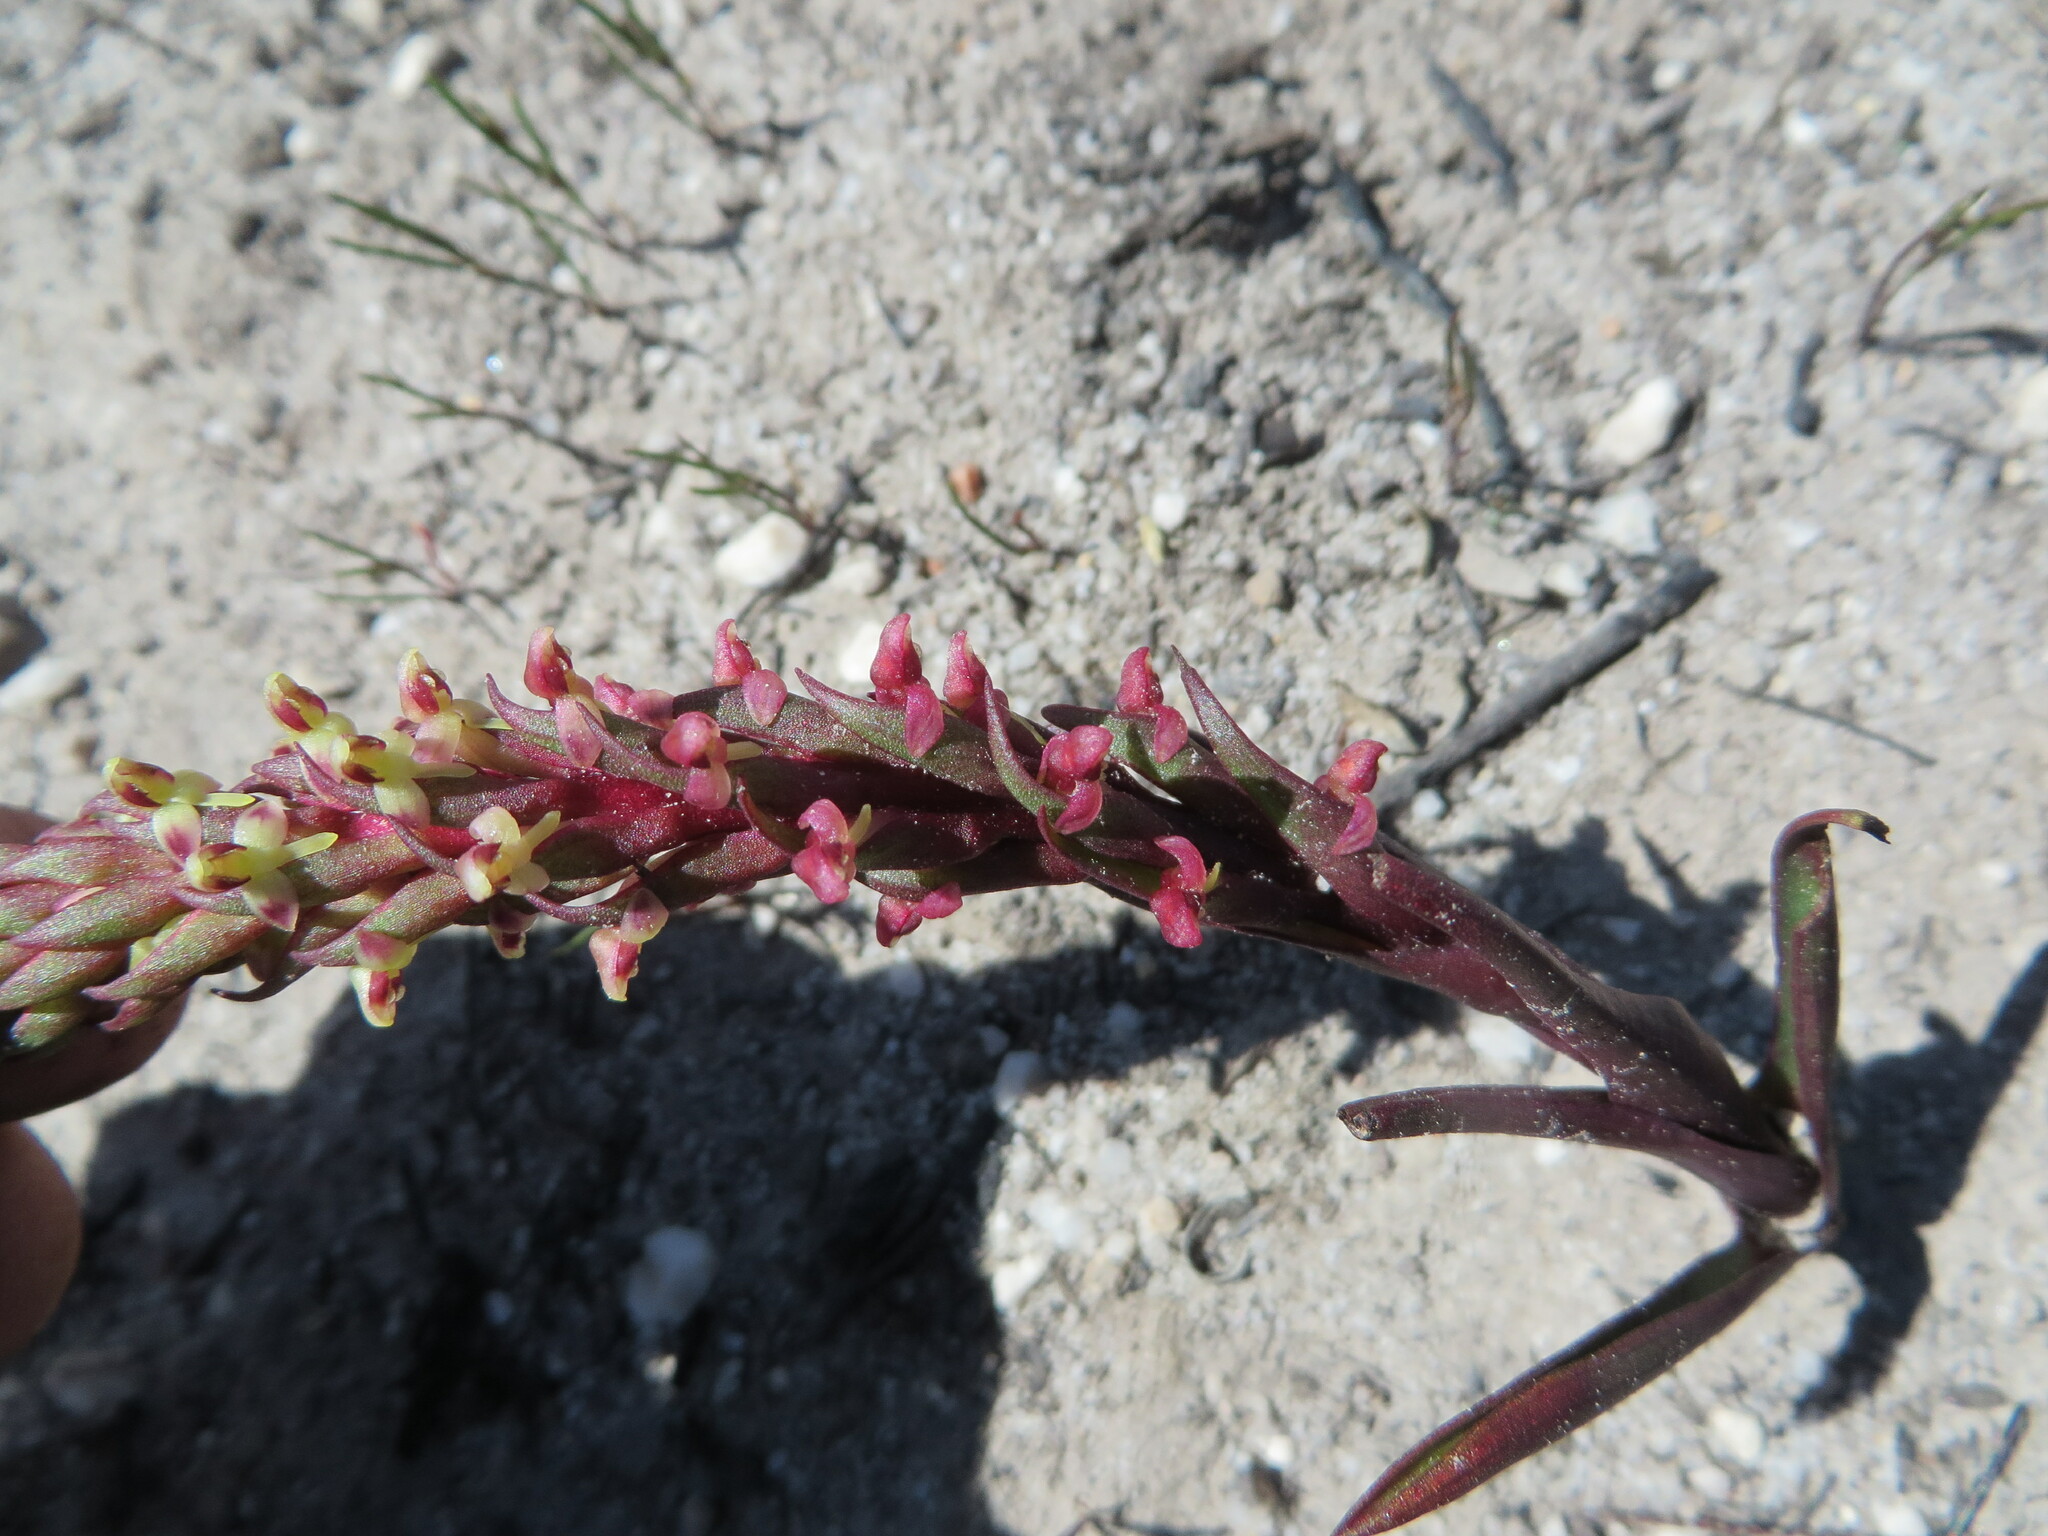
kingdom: Plantae
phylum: Tracheophyta
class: Liliopsida
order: Asparagales
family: Orchidaceae
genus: Disa
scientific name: Disa conferta
